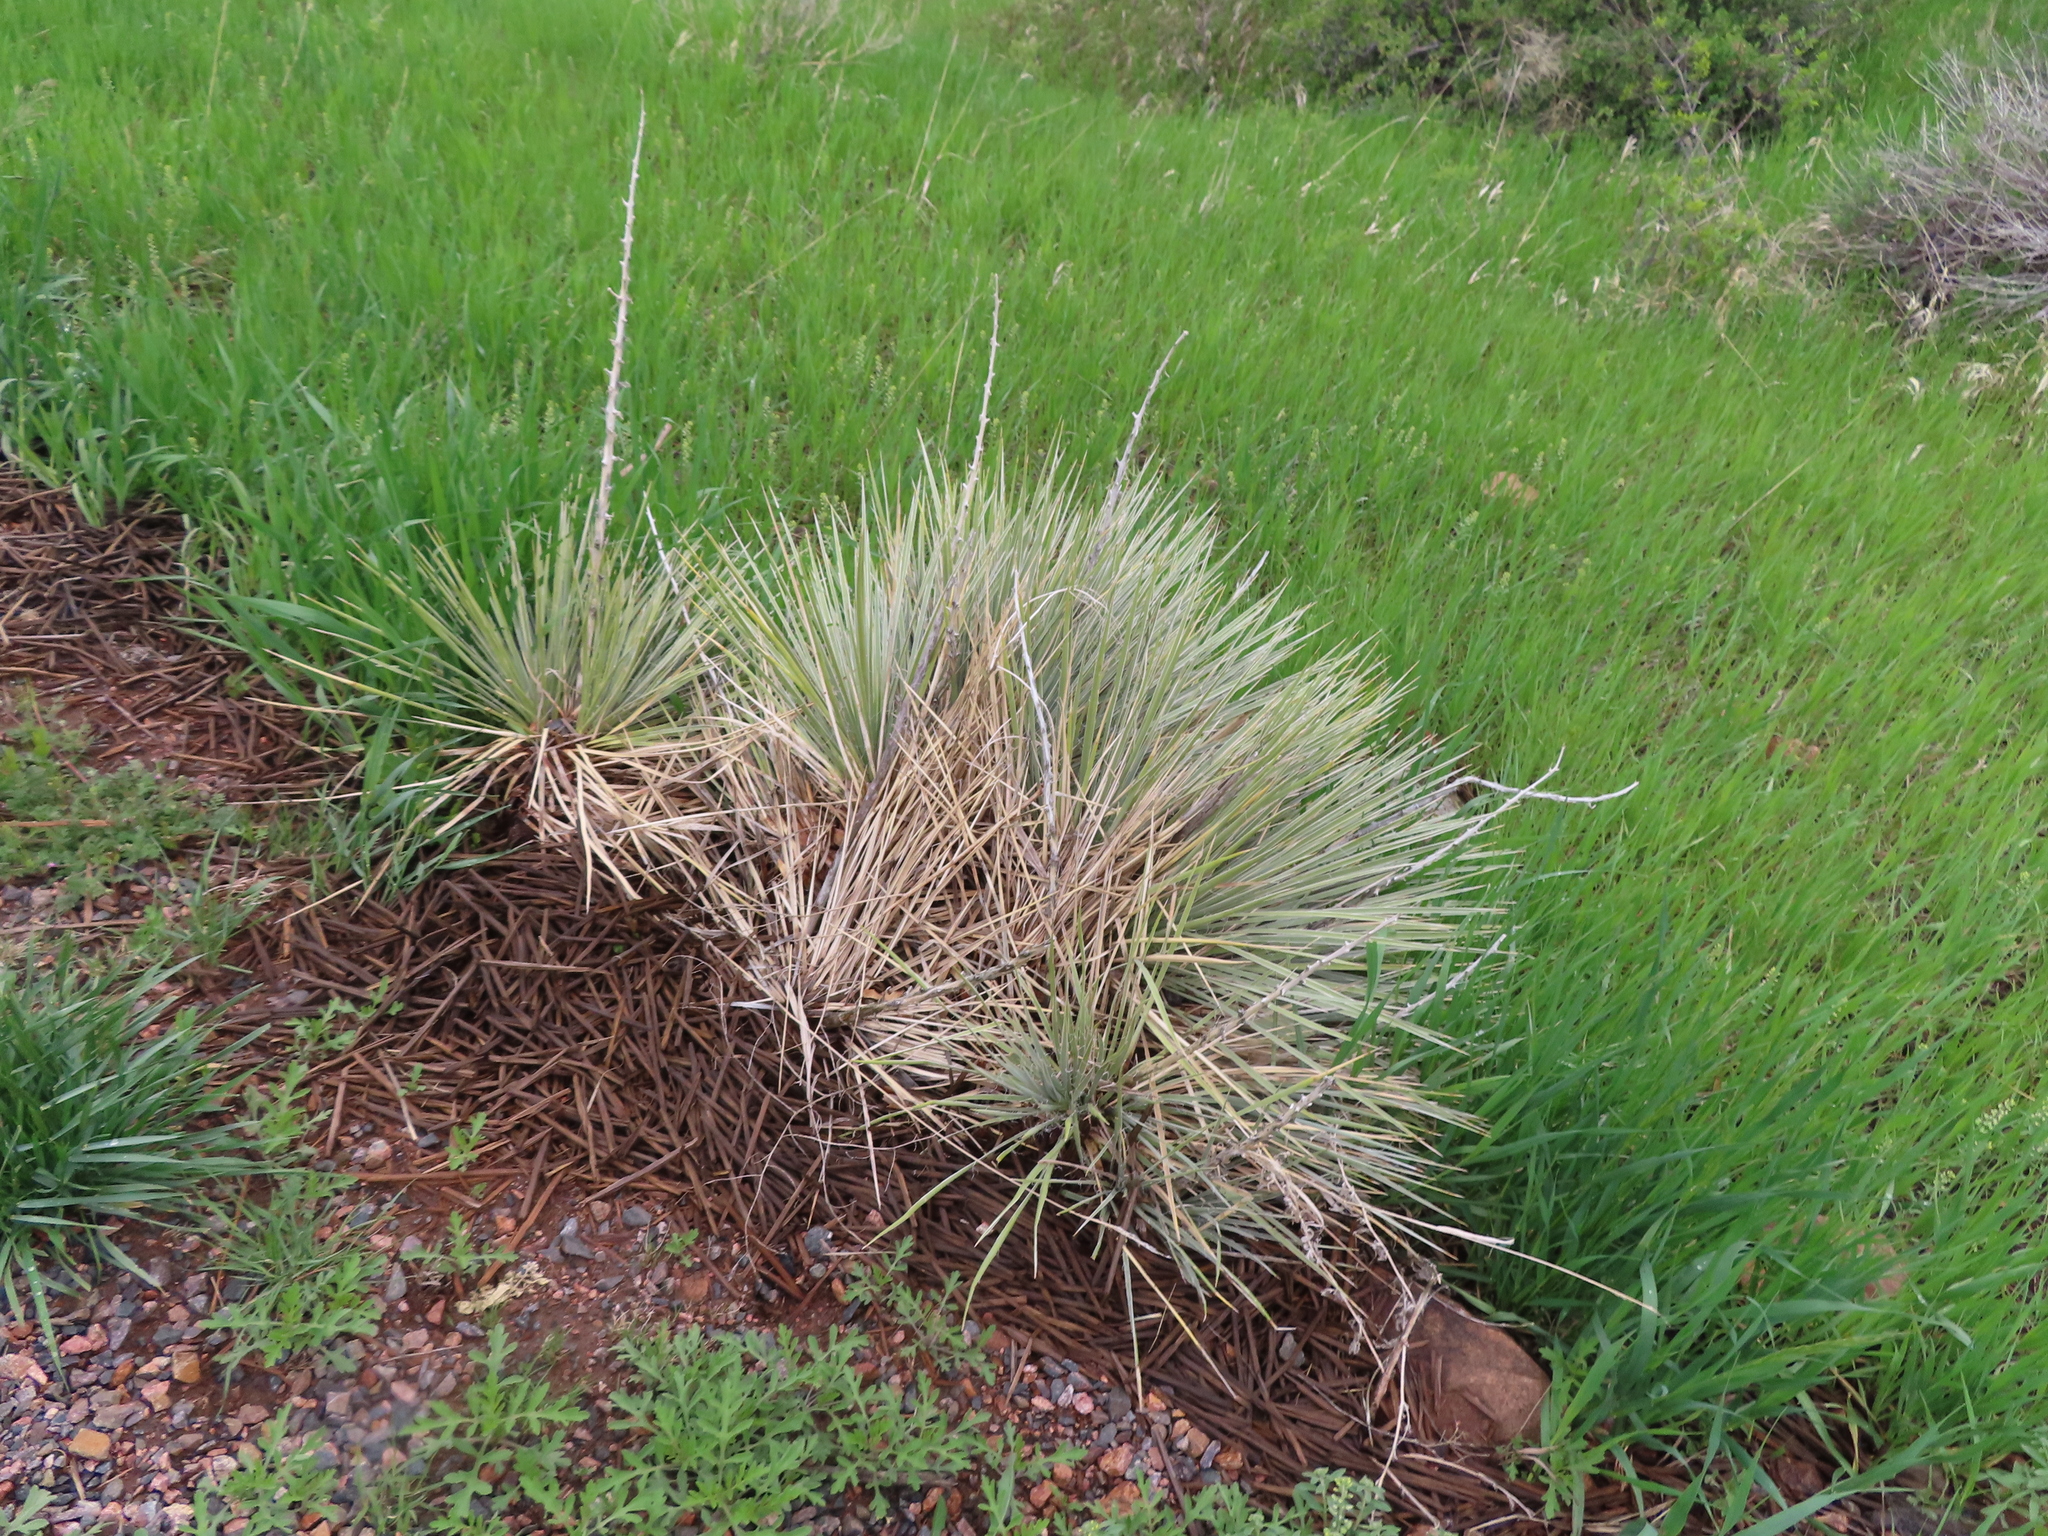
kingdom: Plantae
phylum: Tracheophyta
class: Liliopsida
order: Asparagales
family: Asparagaceae
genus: Yucca
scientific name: Yucca glauca
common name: Great plains yucca
